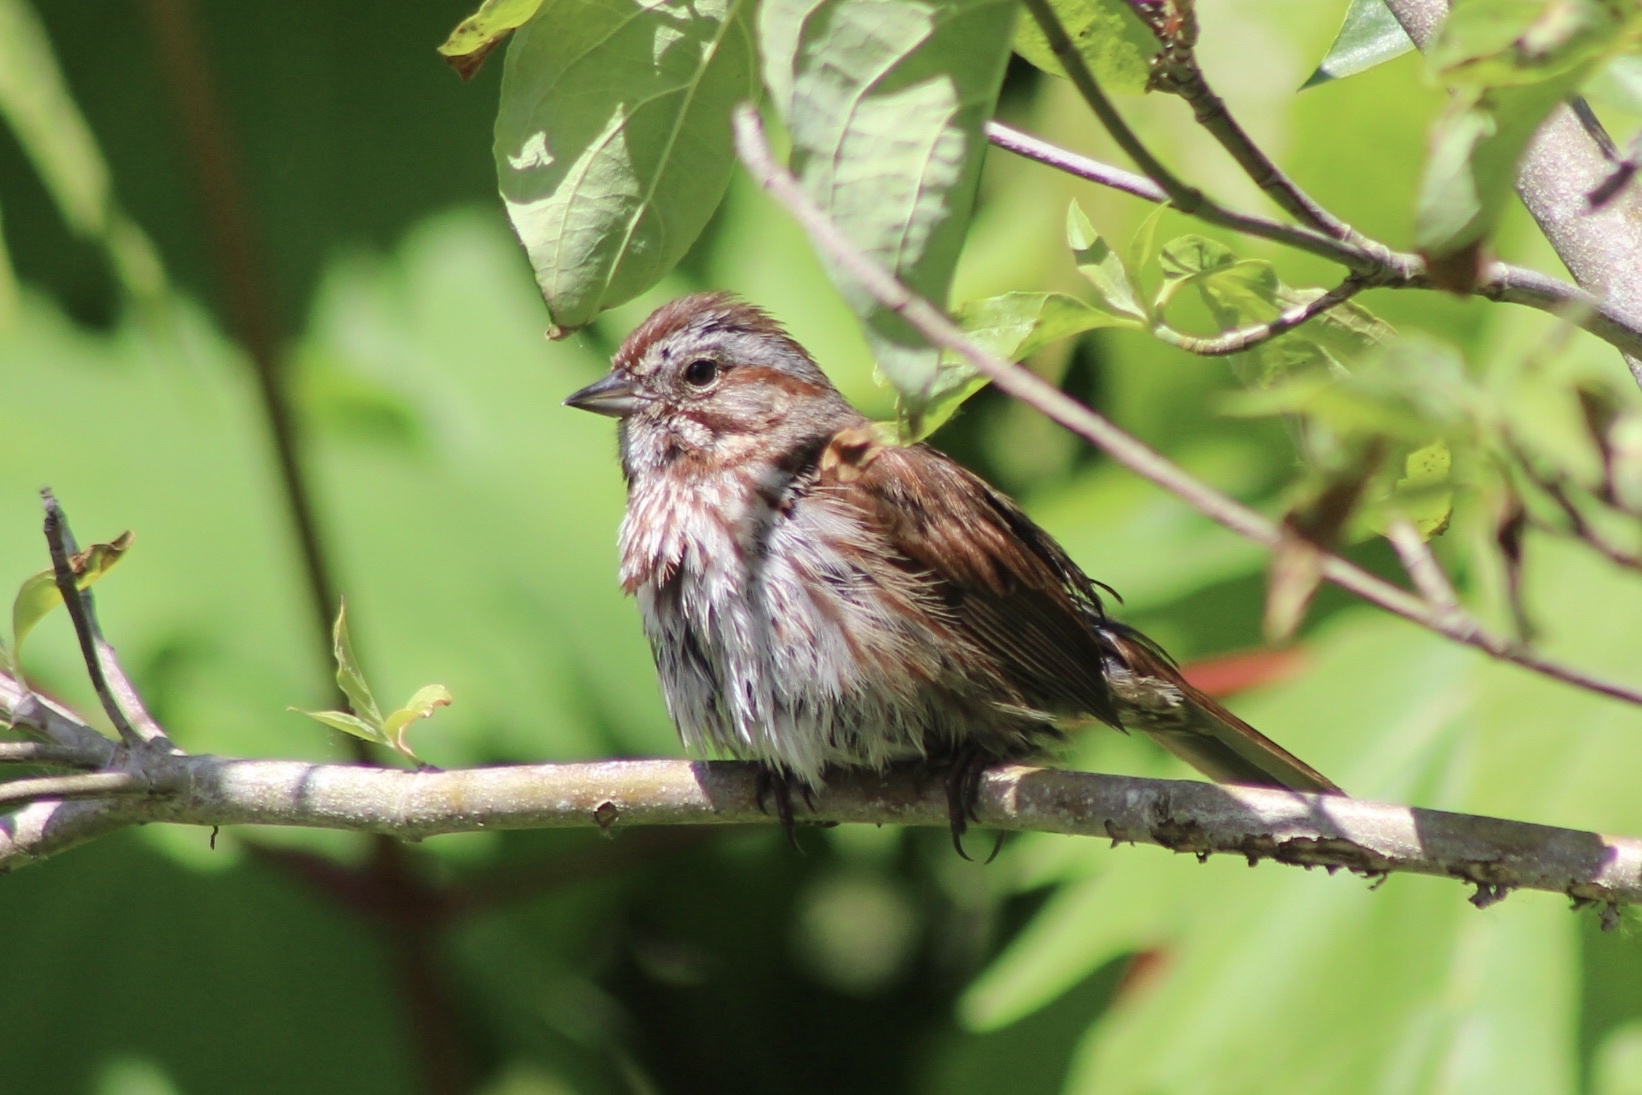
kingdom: Animalia
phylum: Chordata
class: Aves
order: Passeriformes
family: Passerellidae
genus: Melospiza
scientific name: Melospiza melodia
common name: Song sparrow
